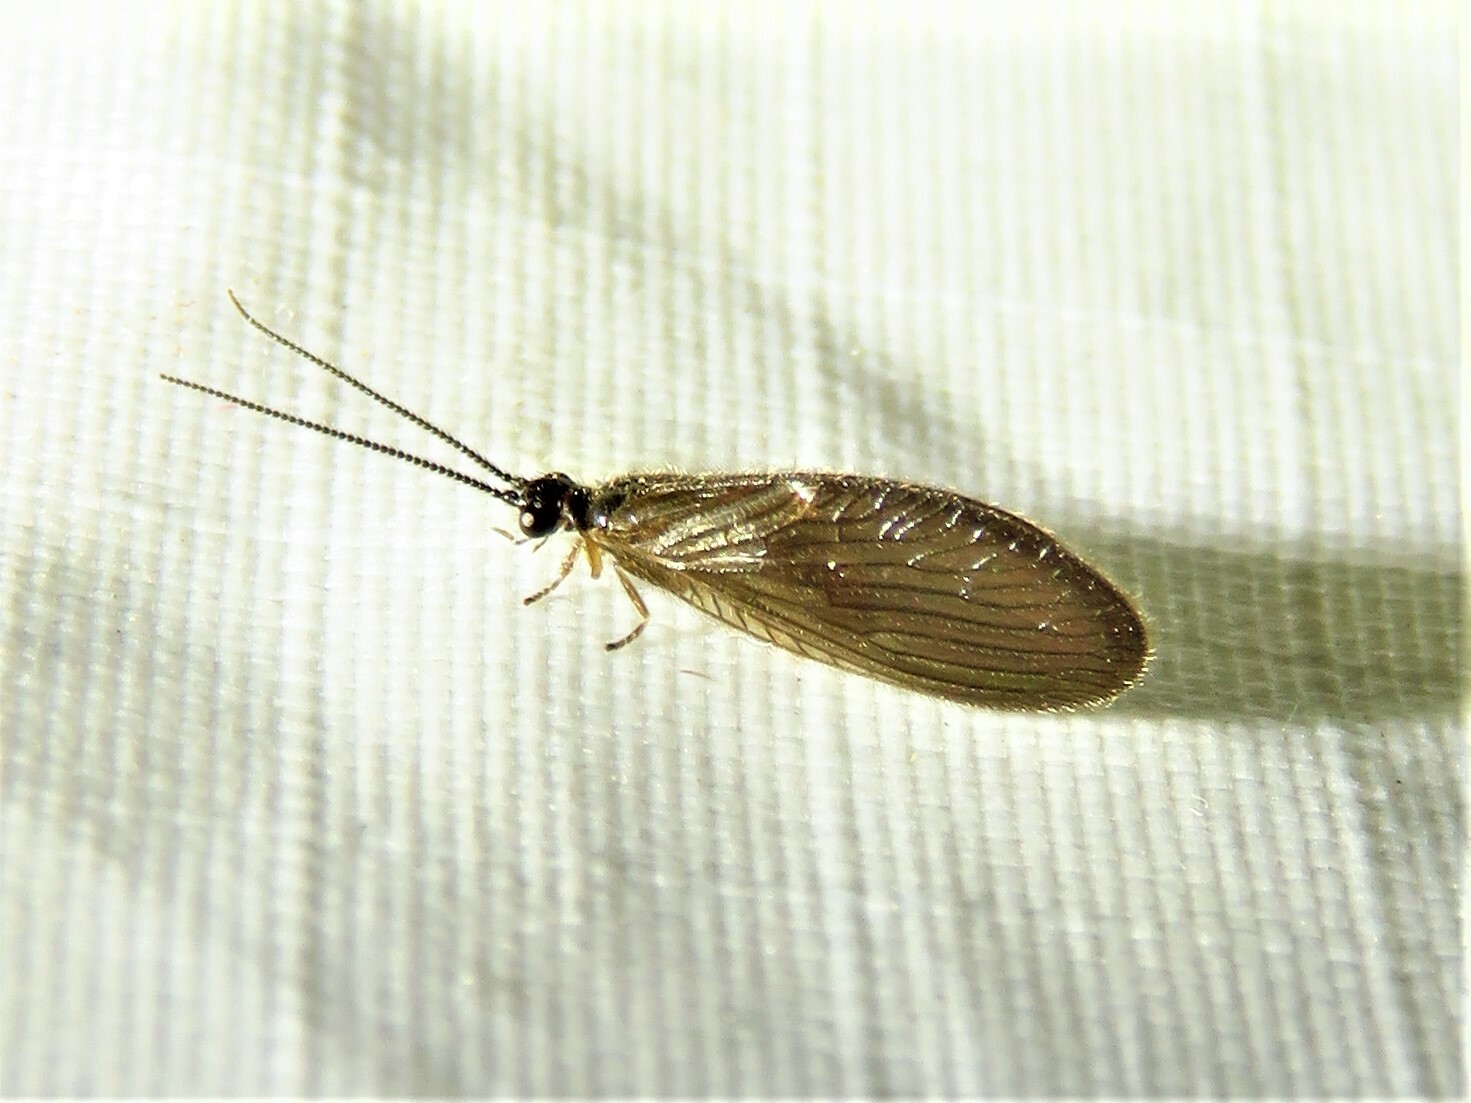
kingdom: Animalia
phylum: Arthropoda
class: Insecta
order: Neuroptera
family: Sisyridae
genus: Sisyra
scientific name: Sisyra nigra
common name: Black spongillafly
